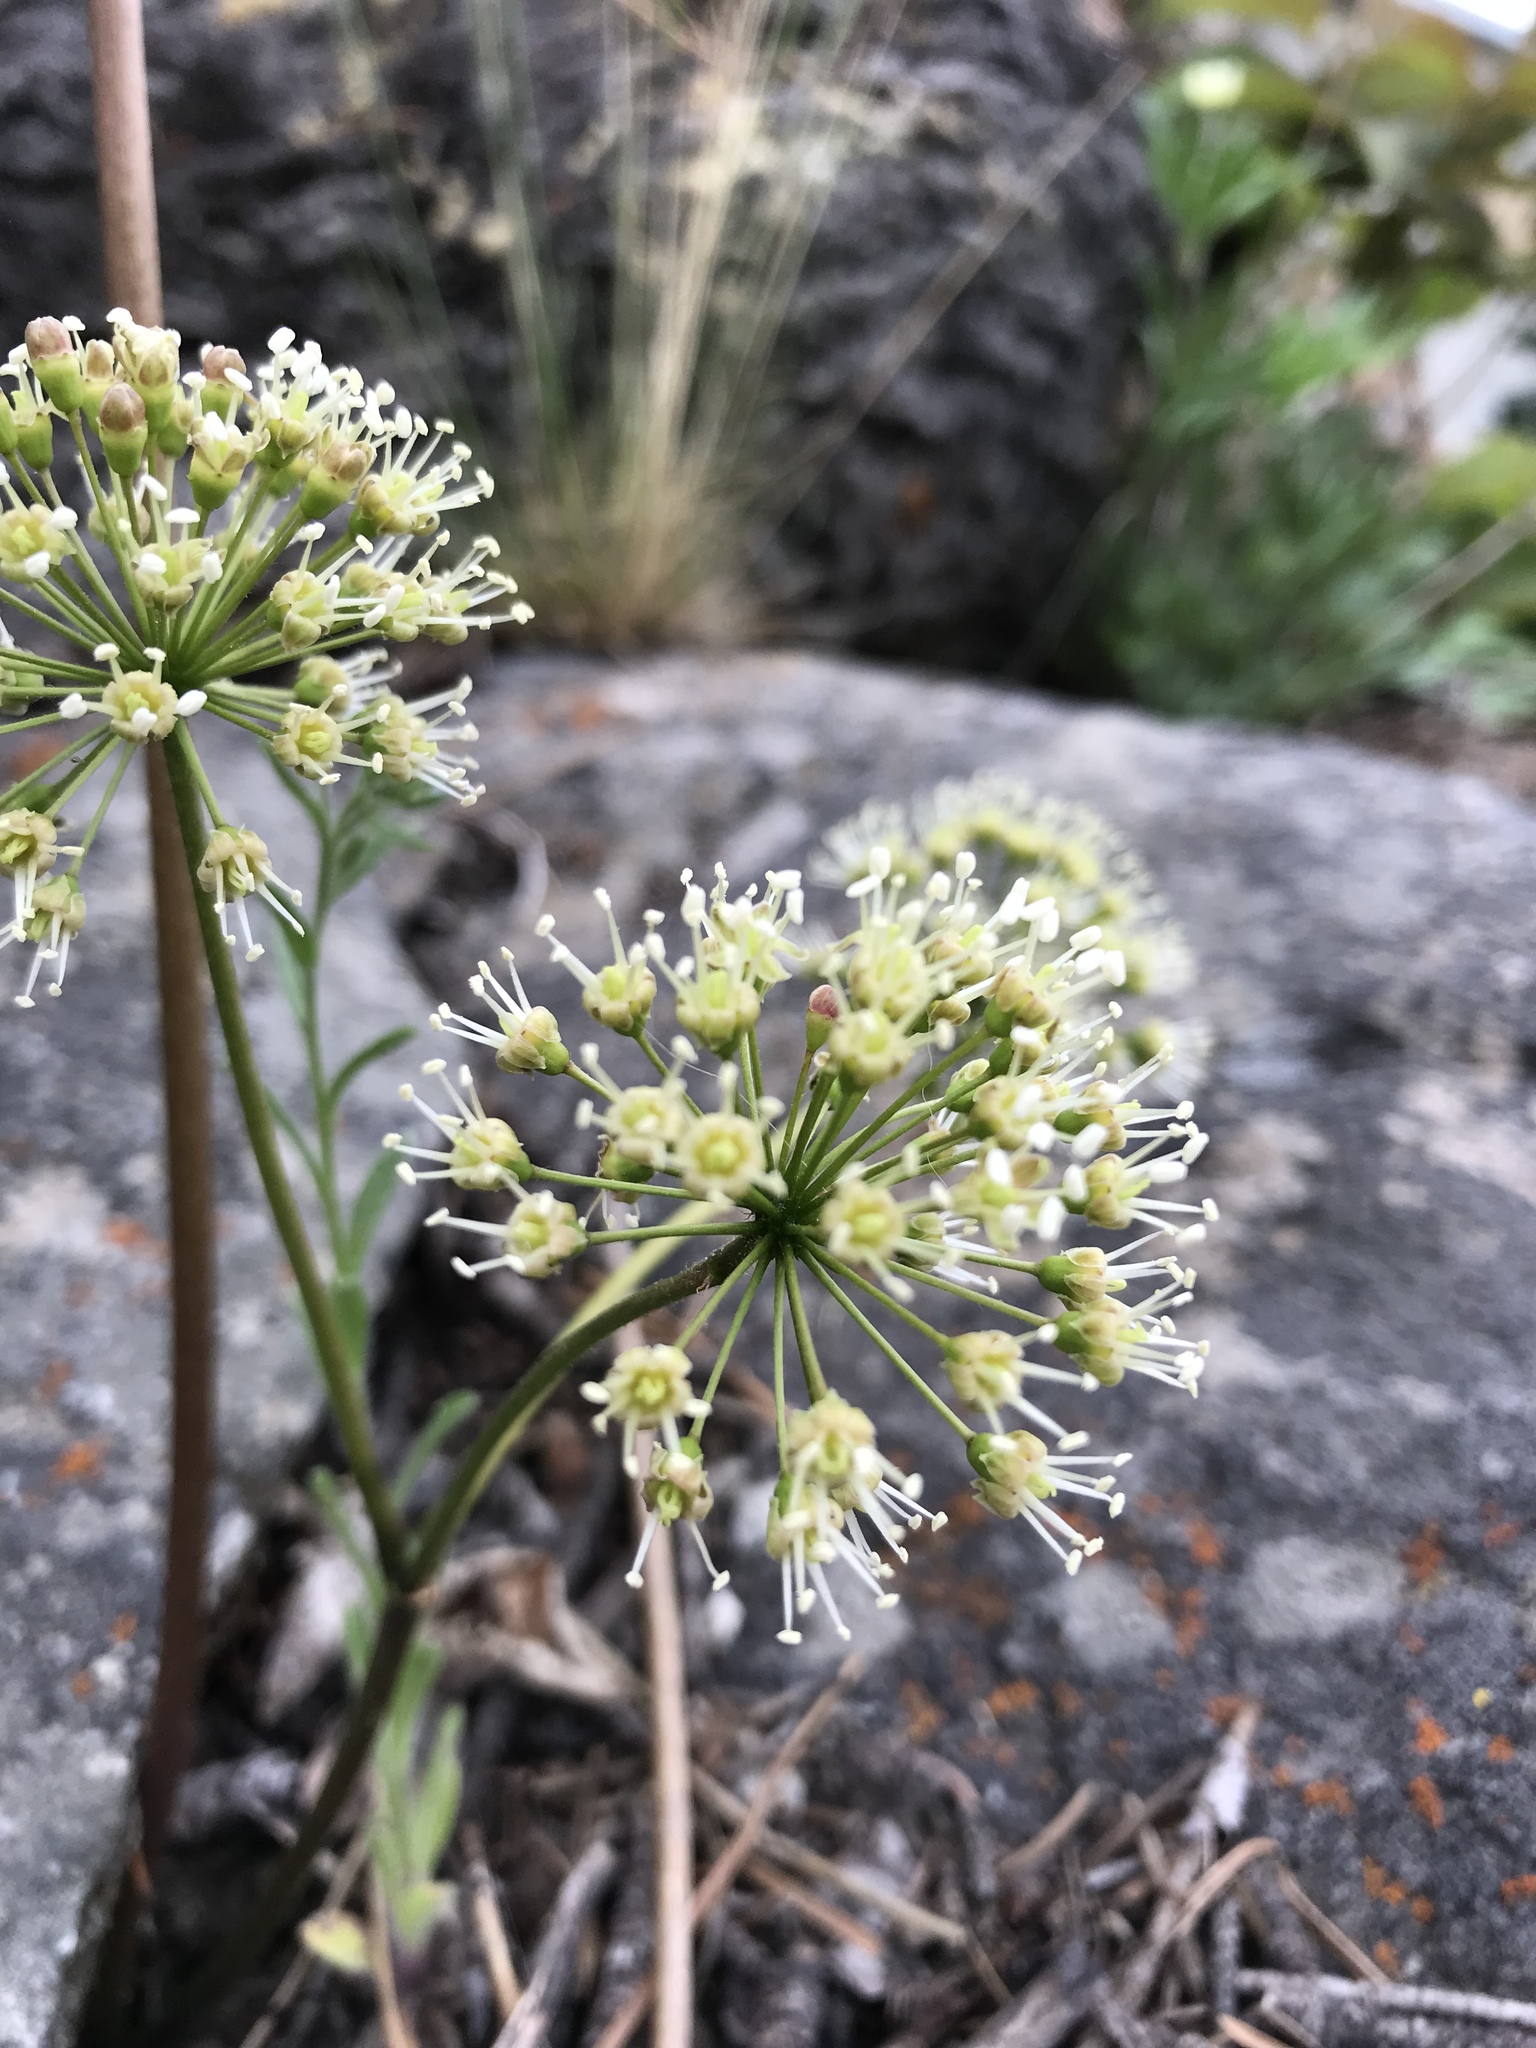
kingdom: Plantae
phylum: Tracheophyta
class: Magnoliopsida
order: Apiales
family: Araliaceae
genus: Aralia
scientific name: Aralia nudicaulis
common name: Wild sarsaparilla
